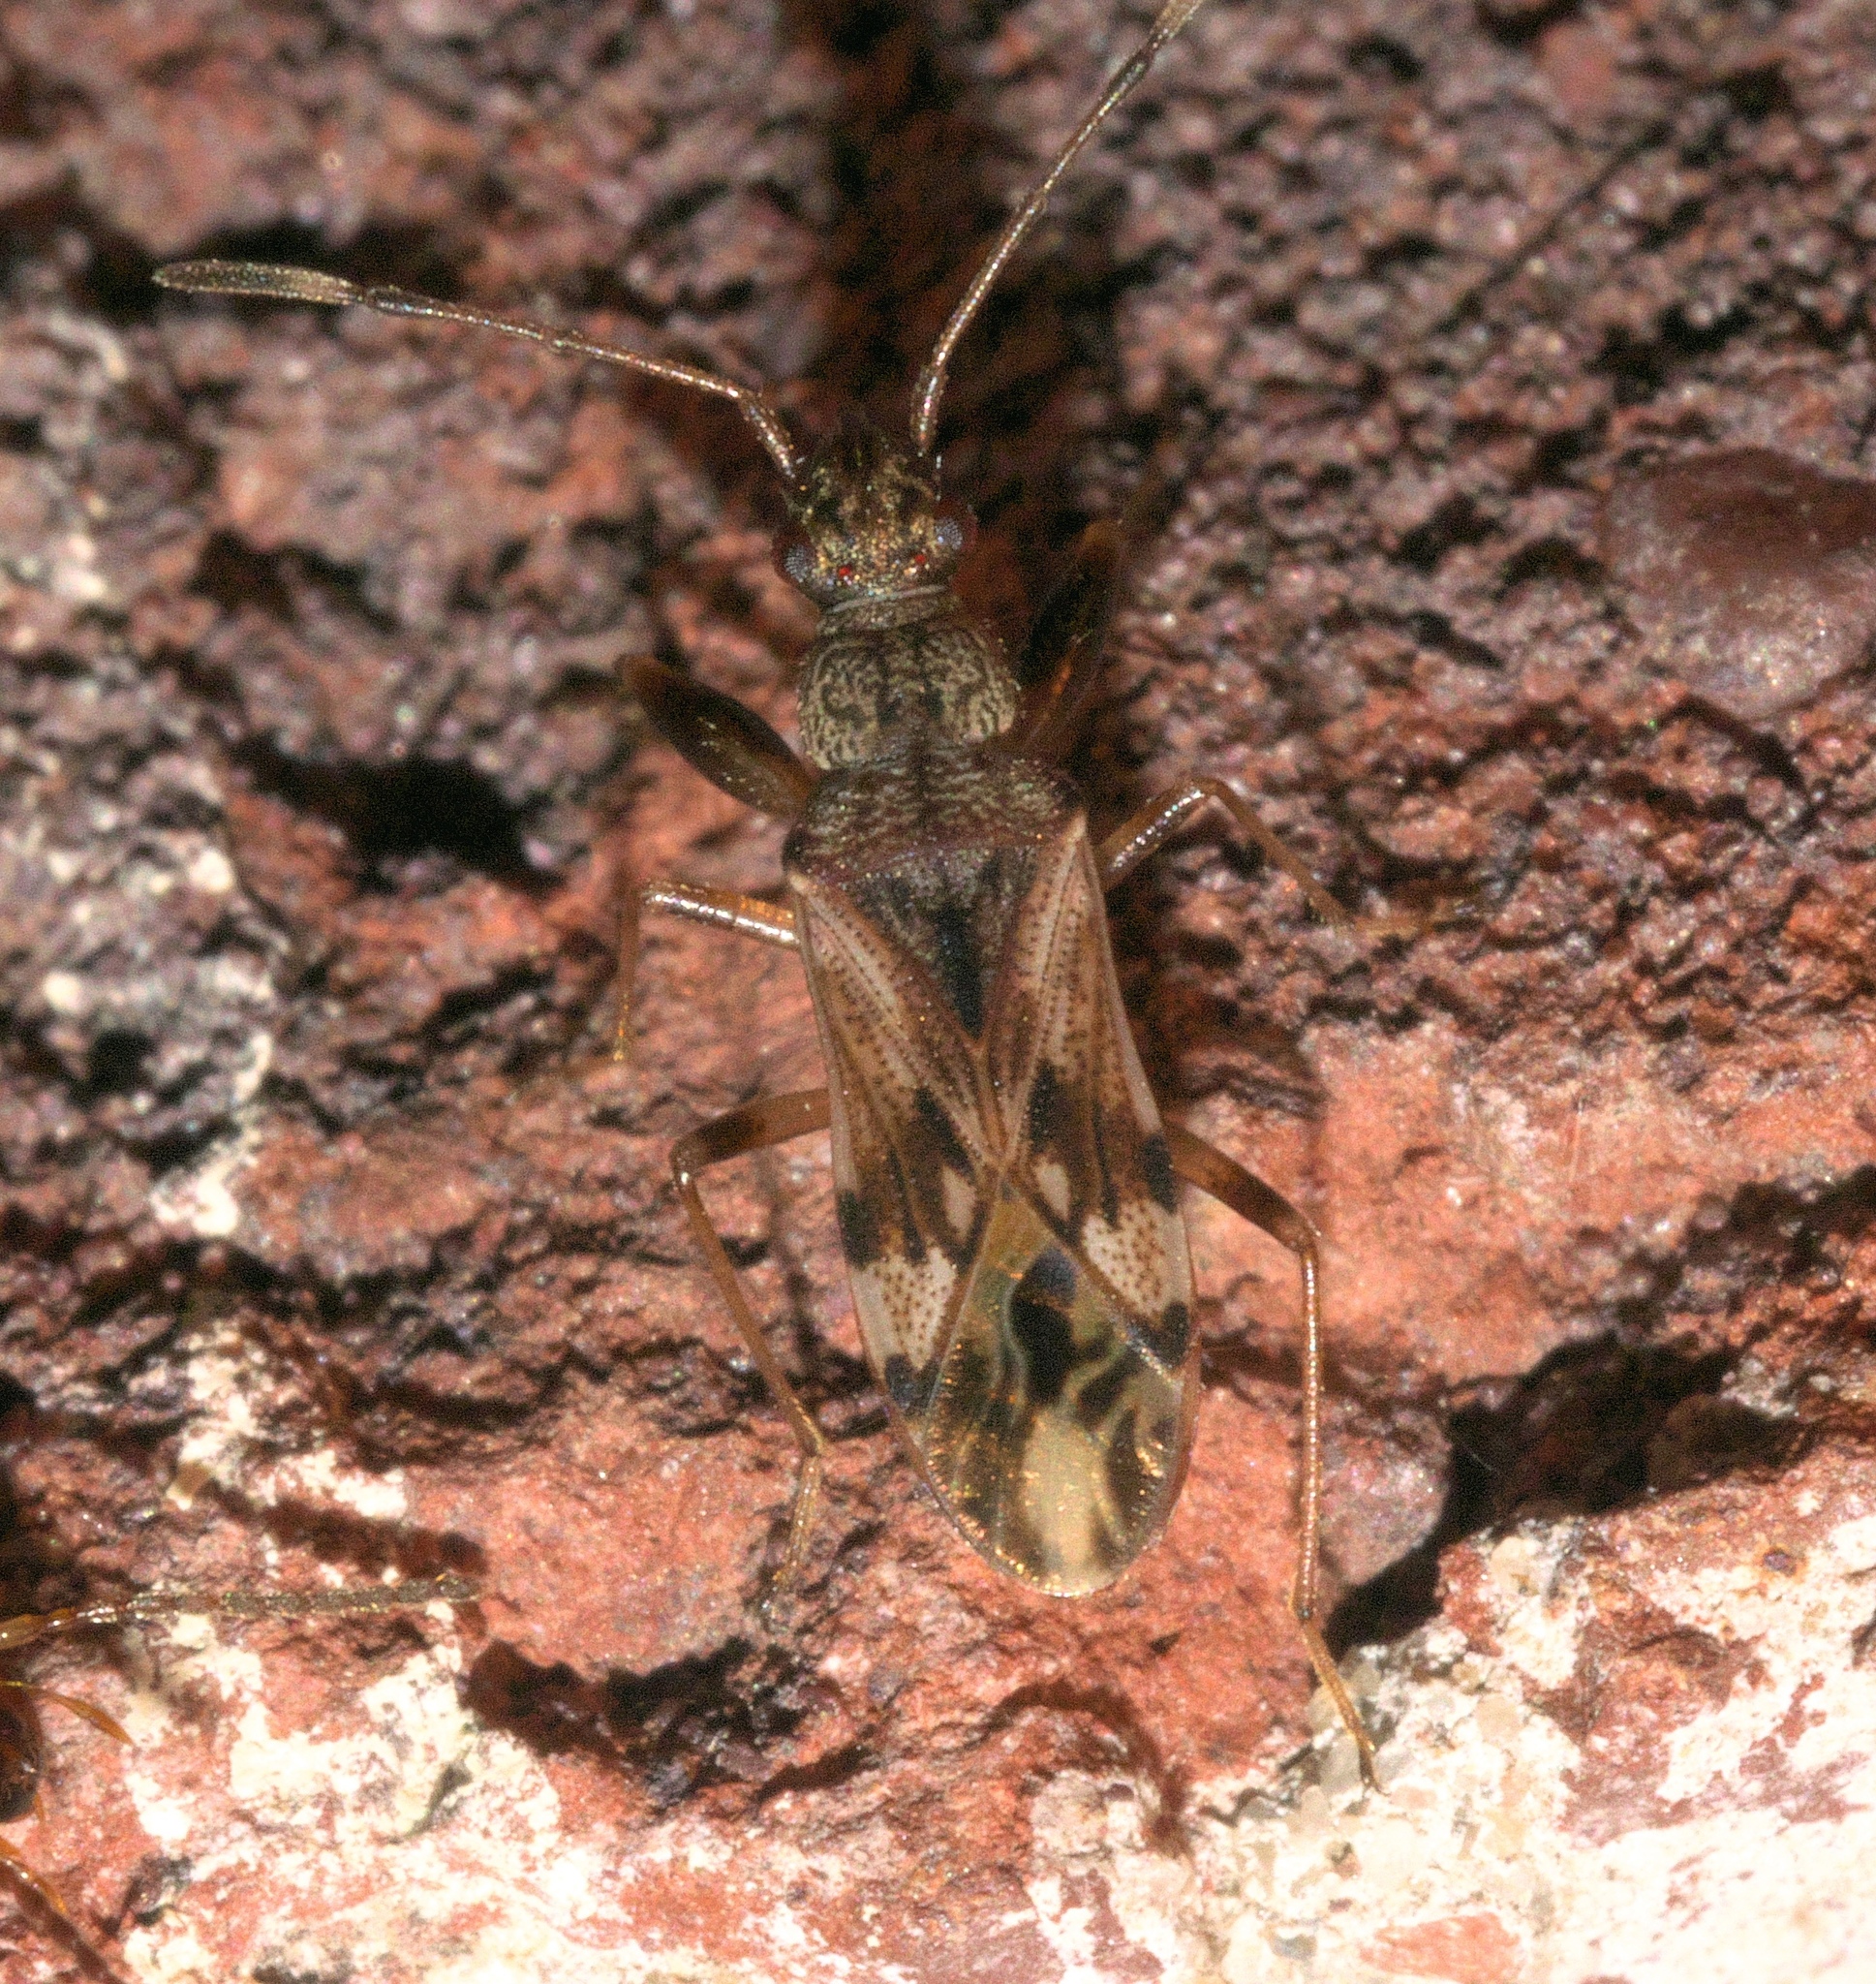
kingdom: Animalia
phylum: Arthropoda
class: Insecta
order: Hemiptera
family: Rhyparochromidae
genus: Neopamera
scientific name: Neopamera albocincta
